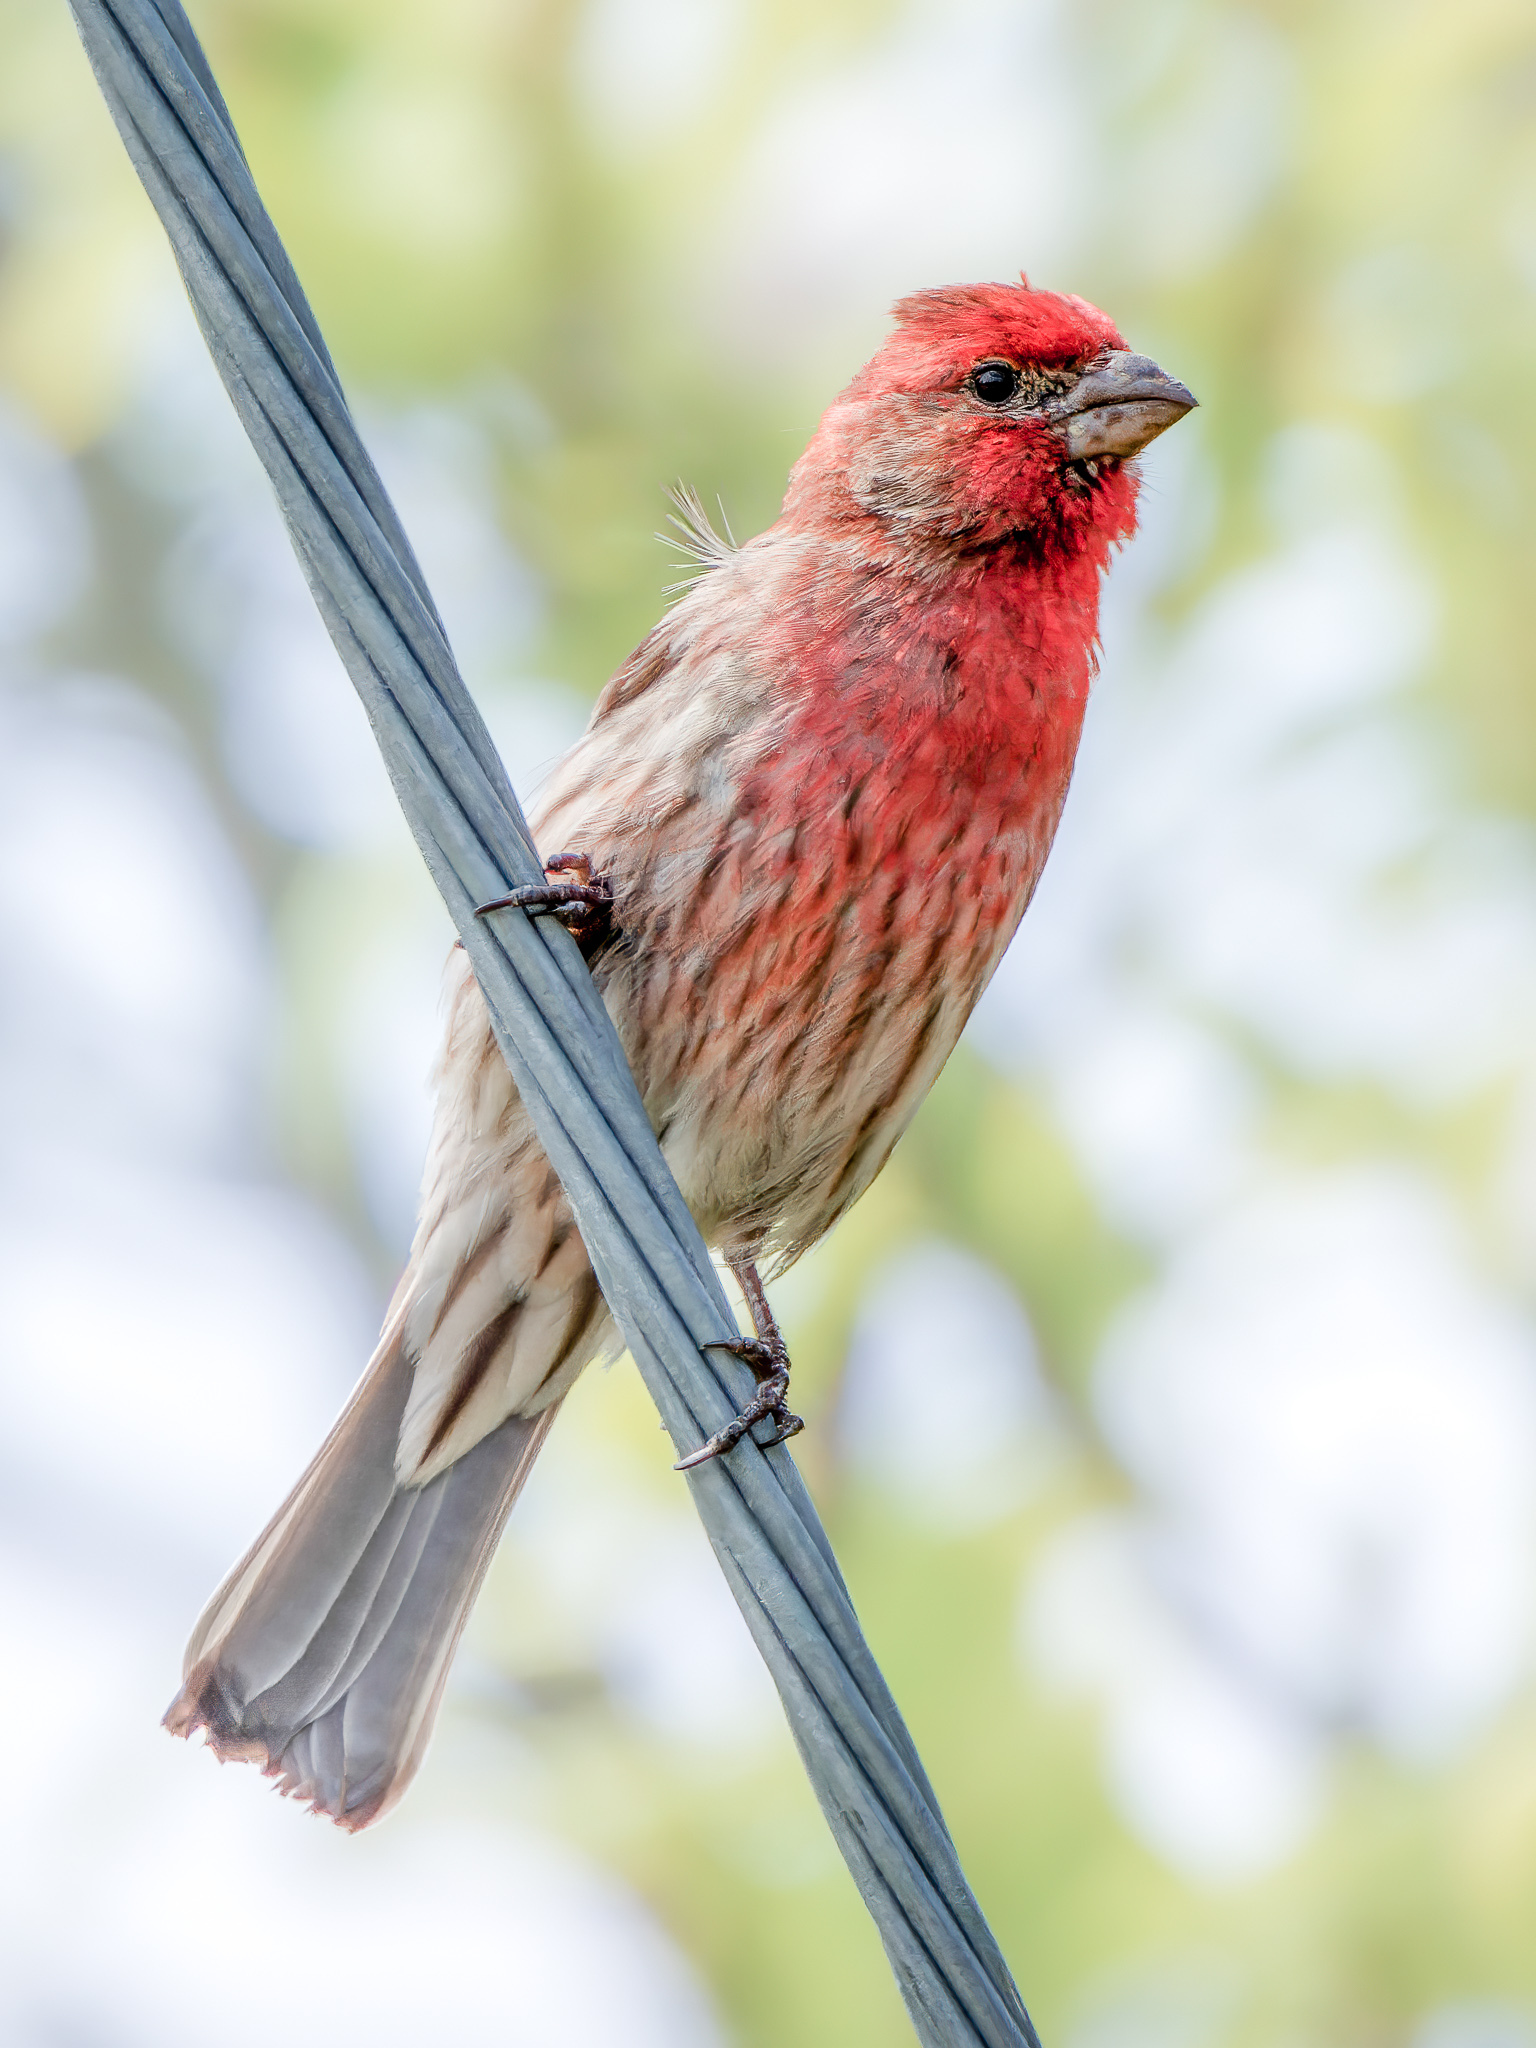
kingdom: Animalia
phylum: Chordata
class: Aves
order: Passeriformes
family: Fringillidae
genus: Haemorhous
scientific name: Haemorhous mexicanus
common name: House finch
